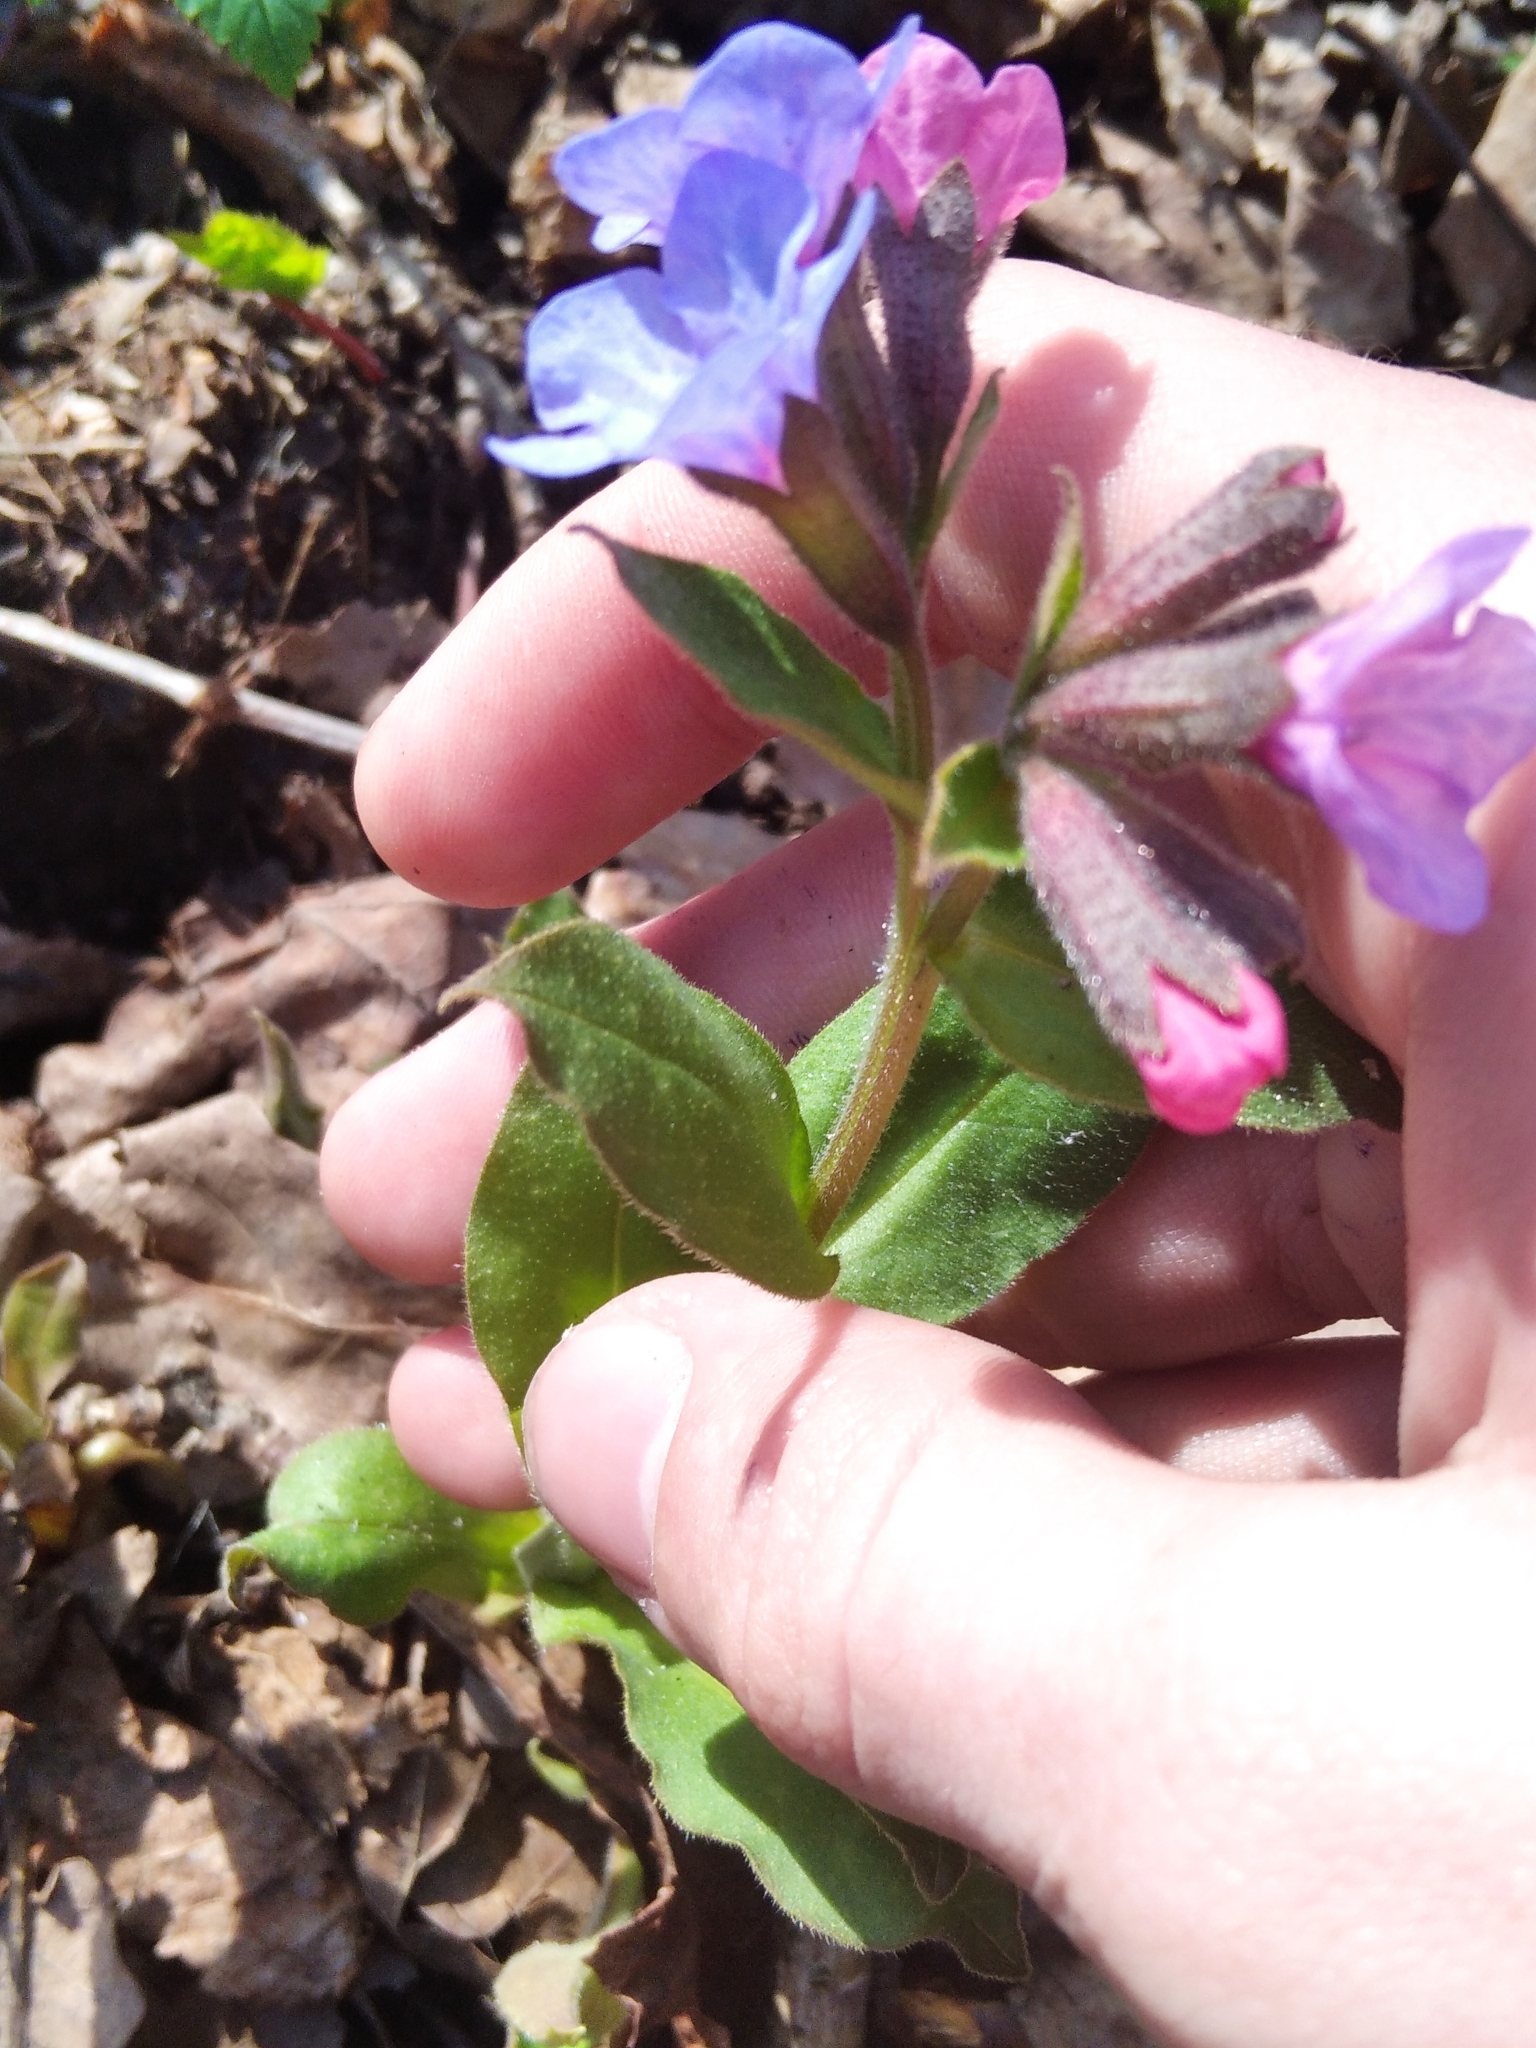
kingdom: Plantae
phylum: Tracheophyta
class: Magnoliopsida
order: Boraginales
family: Boraginaceae
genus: Pulmonaria
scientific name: Pulmonaria obscura
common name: Suffolk lungwort
